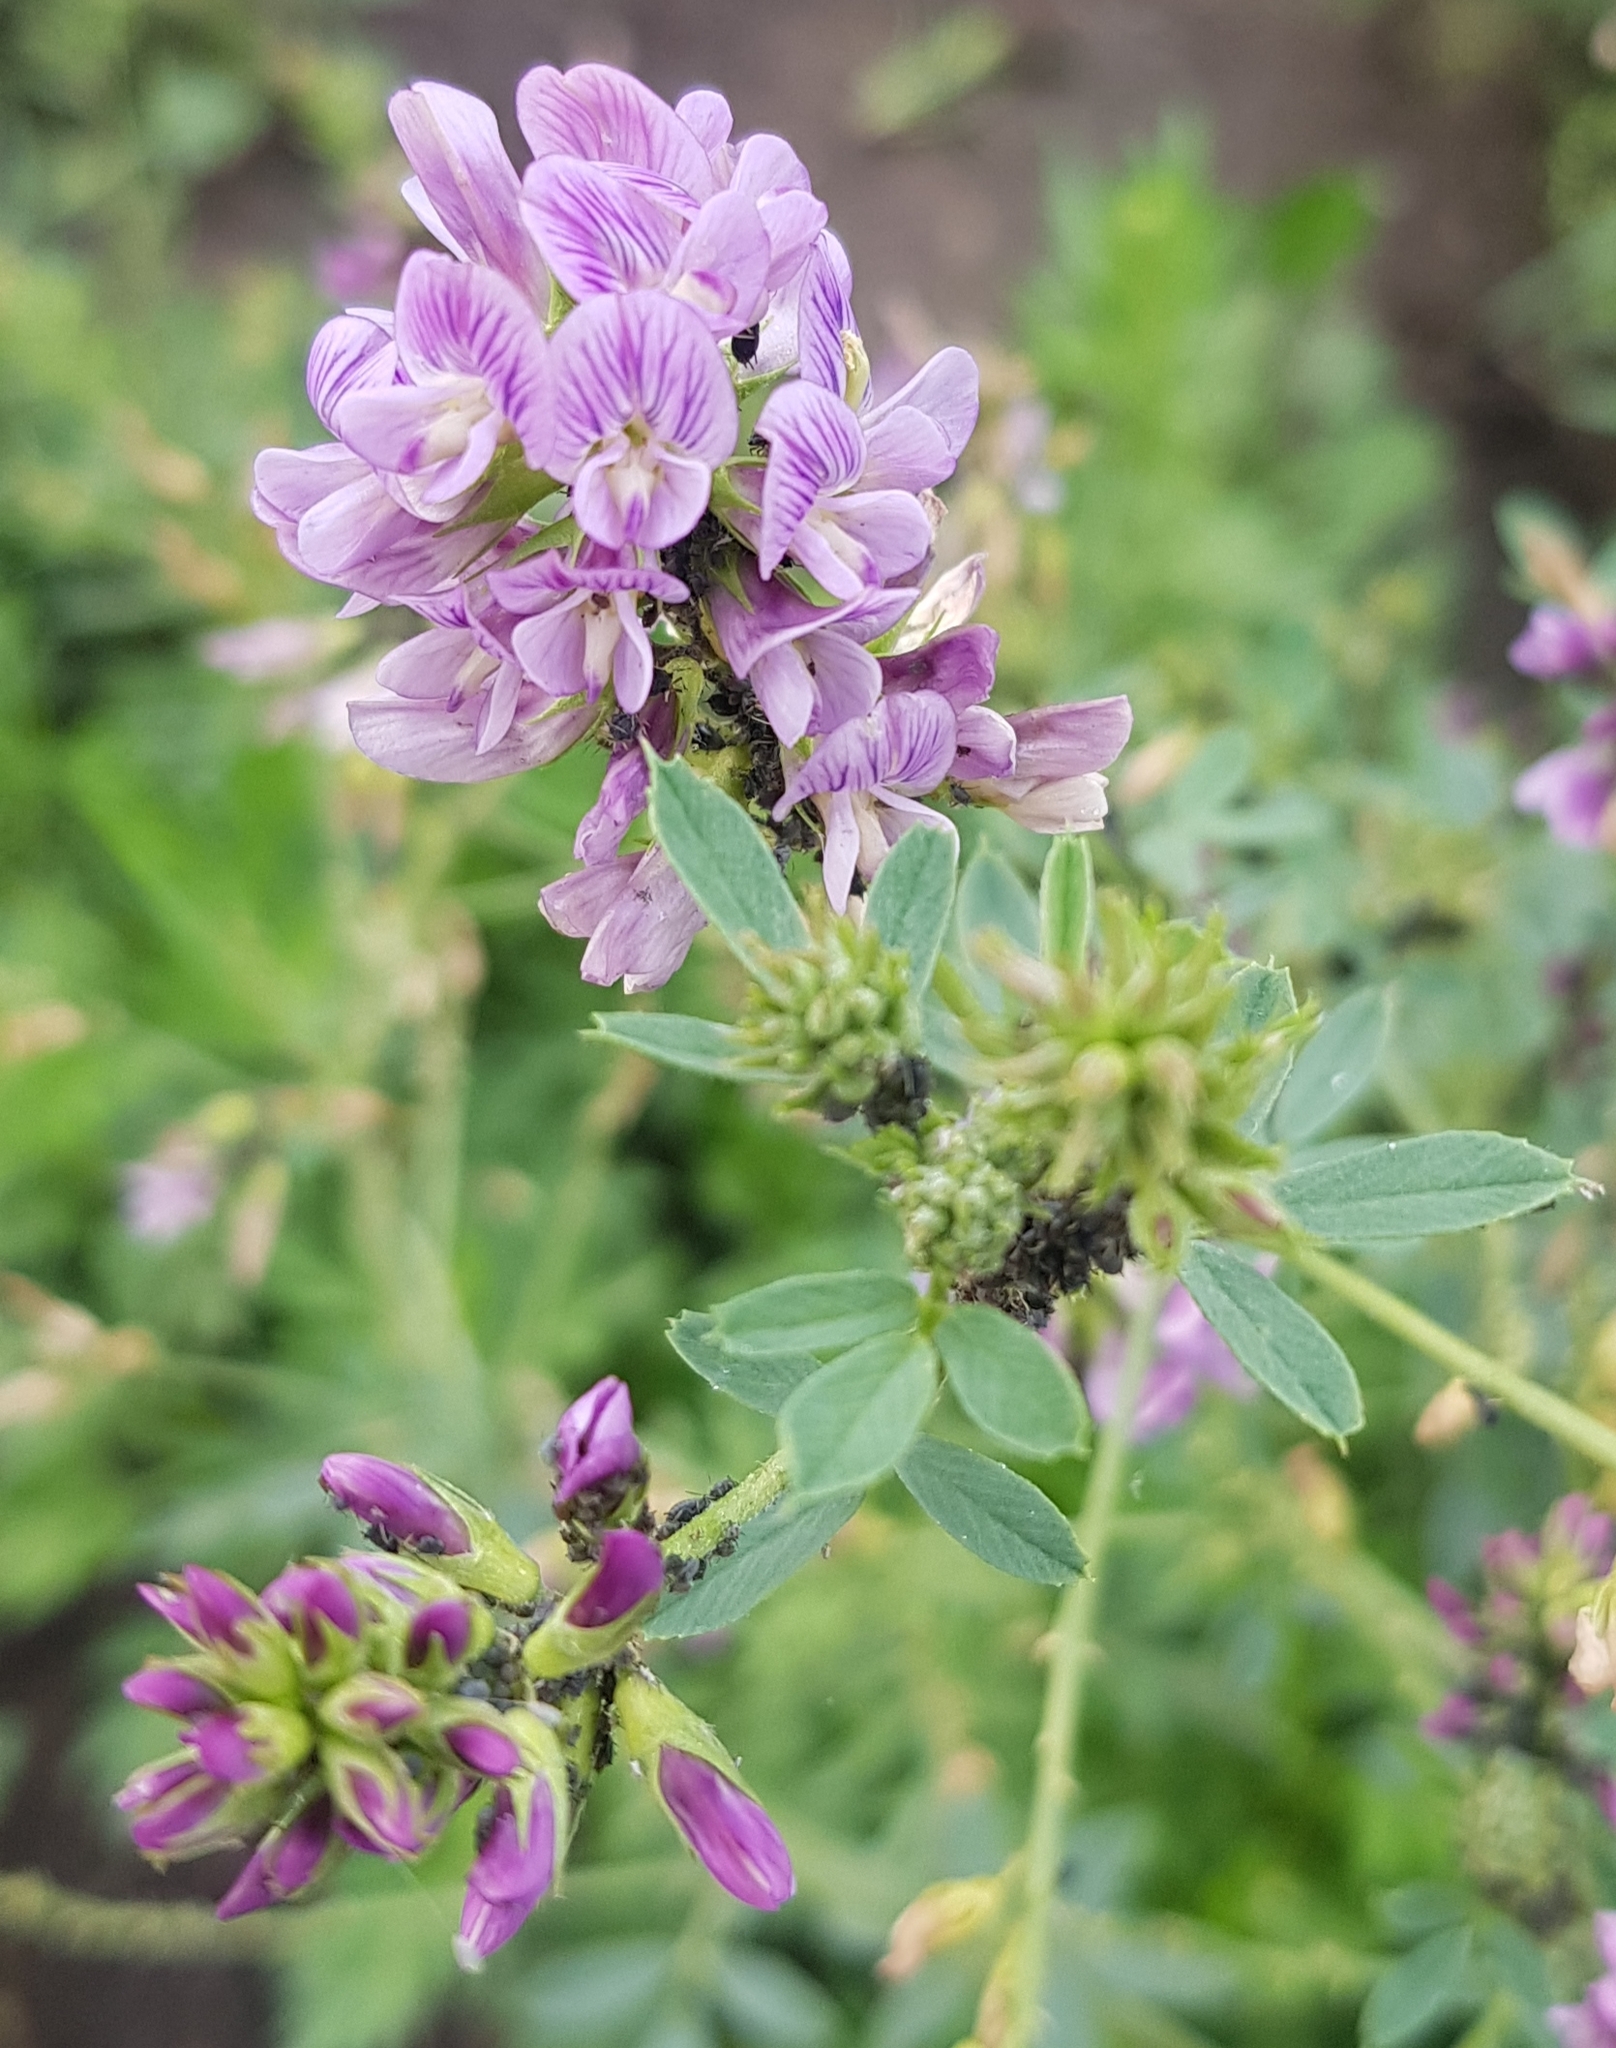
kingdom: Plantae
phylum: Tracheophyta
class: Magnoliopsida
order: Fabales
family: Fabaceae
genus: Medicago
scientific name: Medicago sativa
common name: Alfalfa
